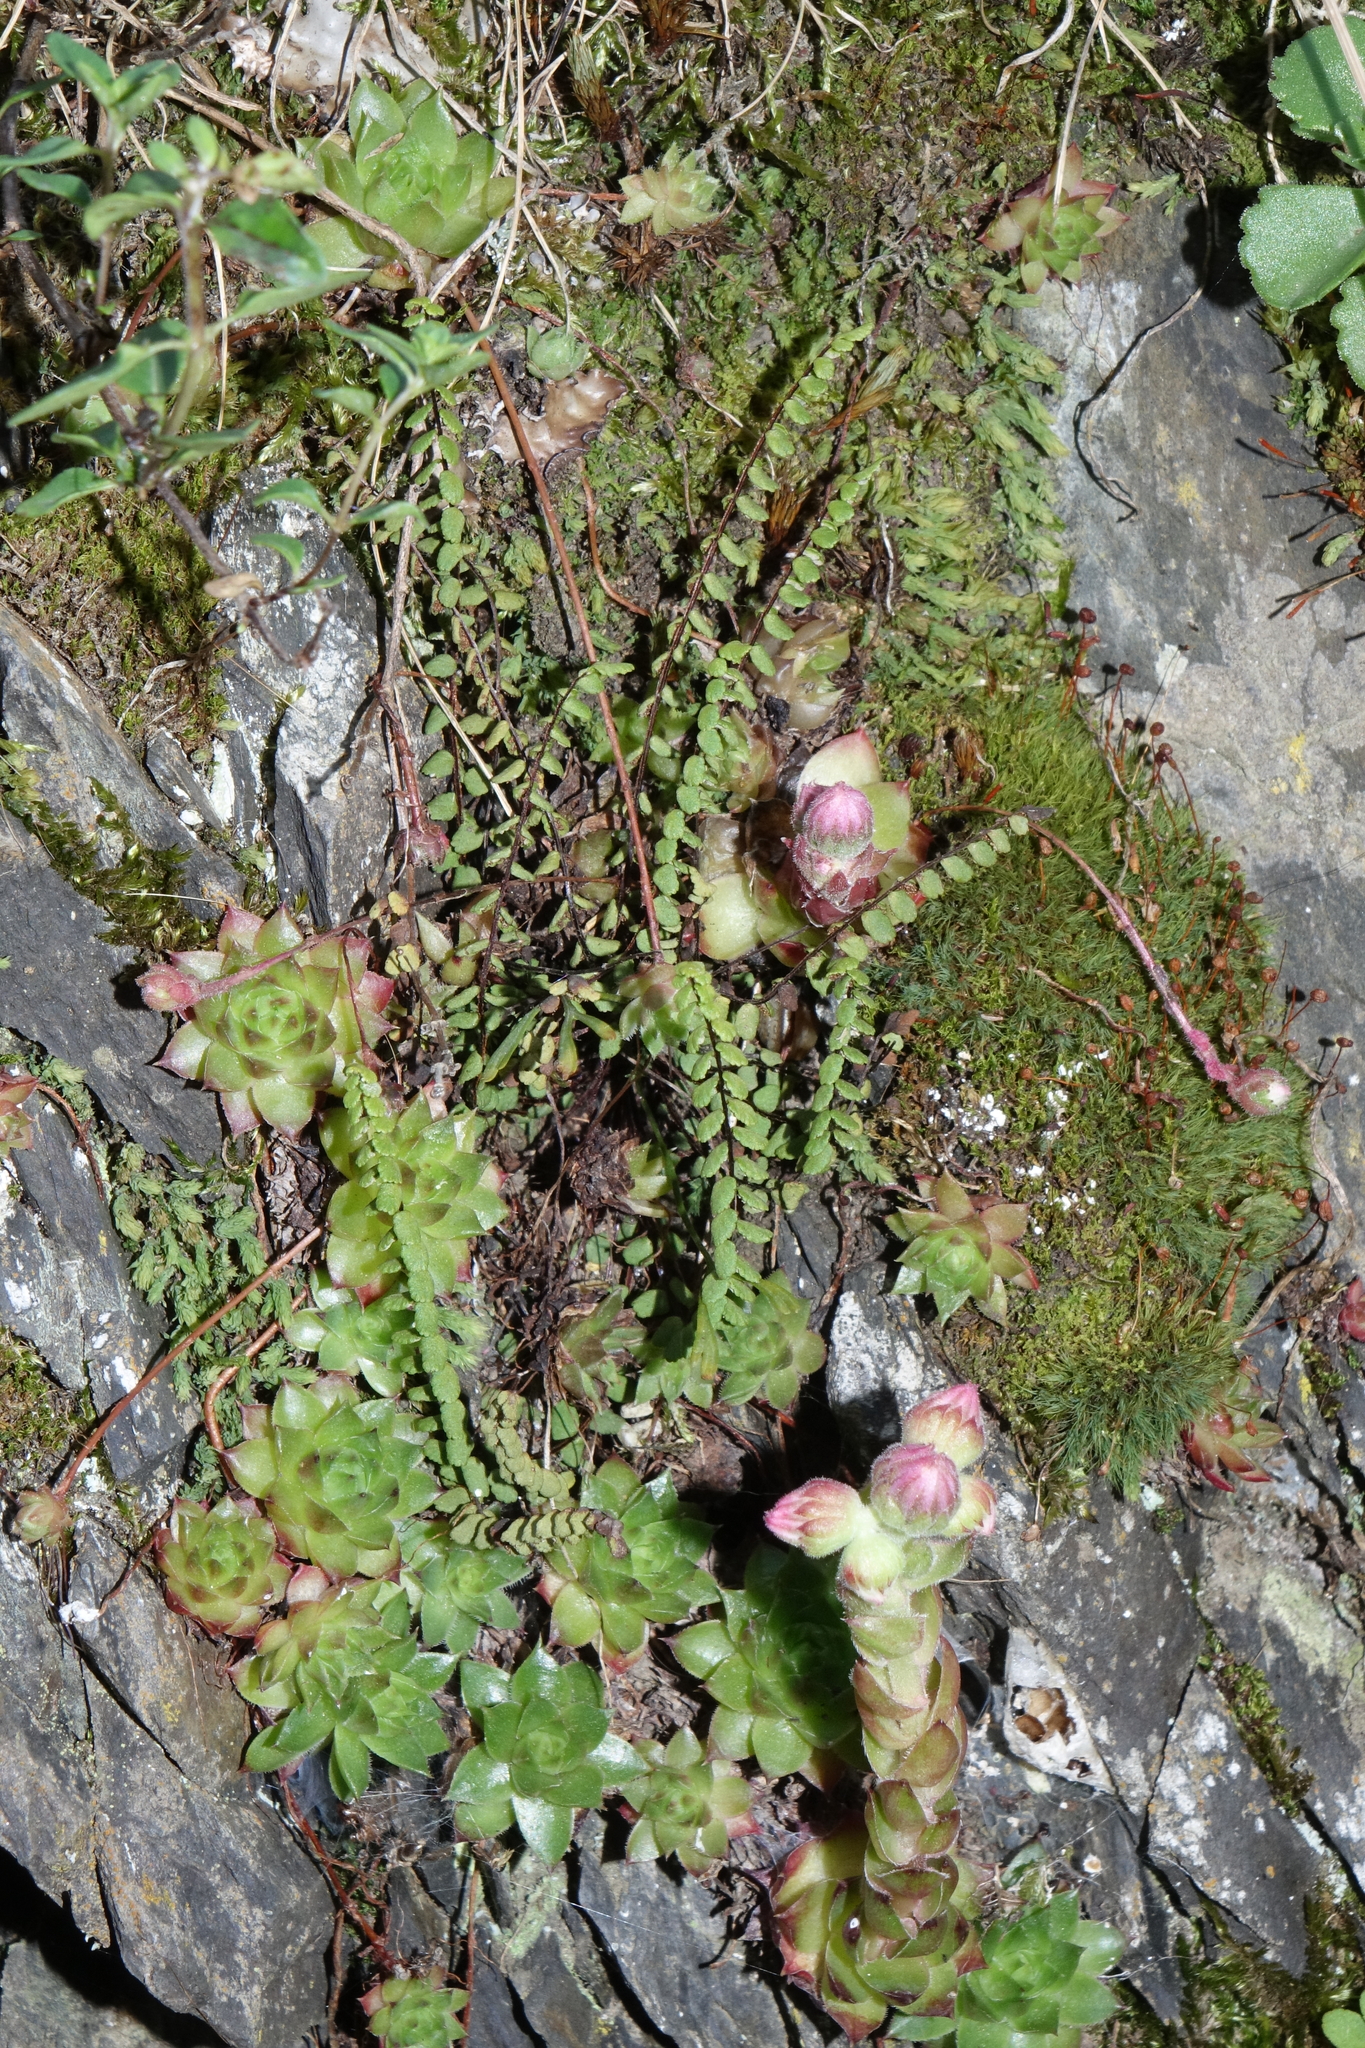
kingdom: Plantae
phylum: Tracheophyta
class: Polypodiopsida
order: Polypodiales
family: Aspleniaceae
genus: Asplenium
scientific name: Asplenium trichomanes
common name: Maidenhair spleenwort
